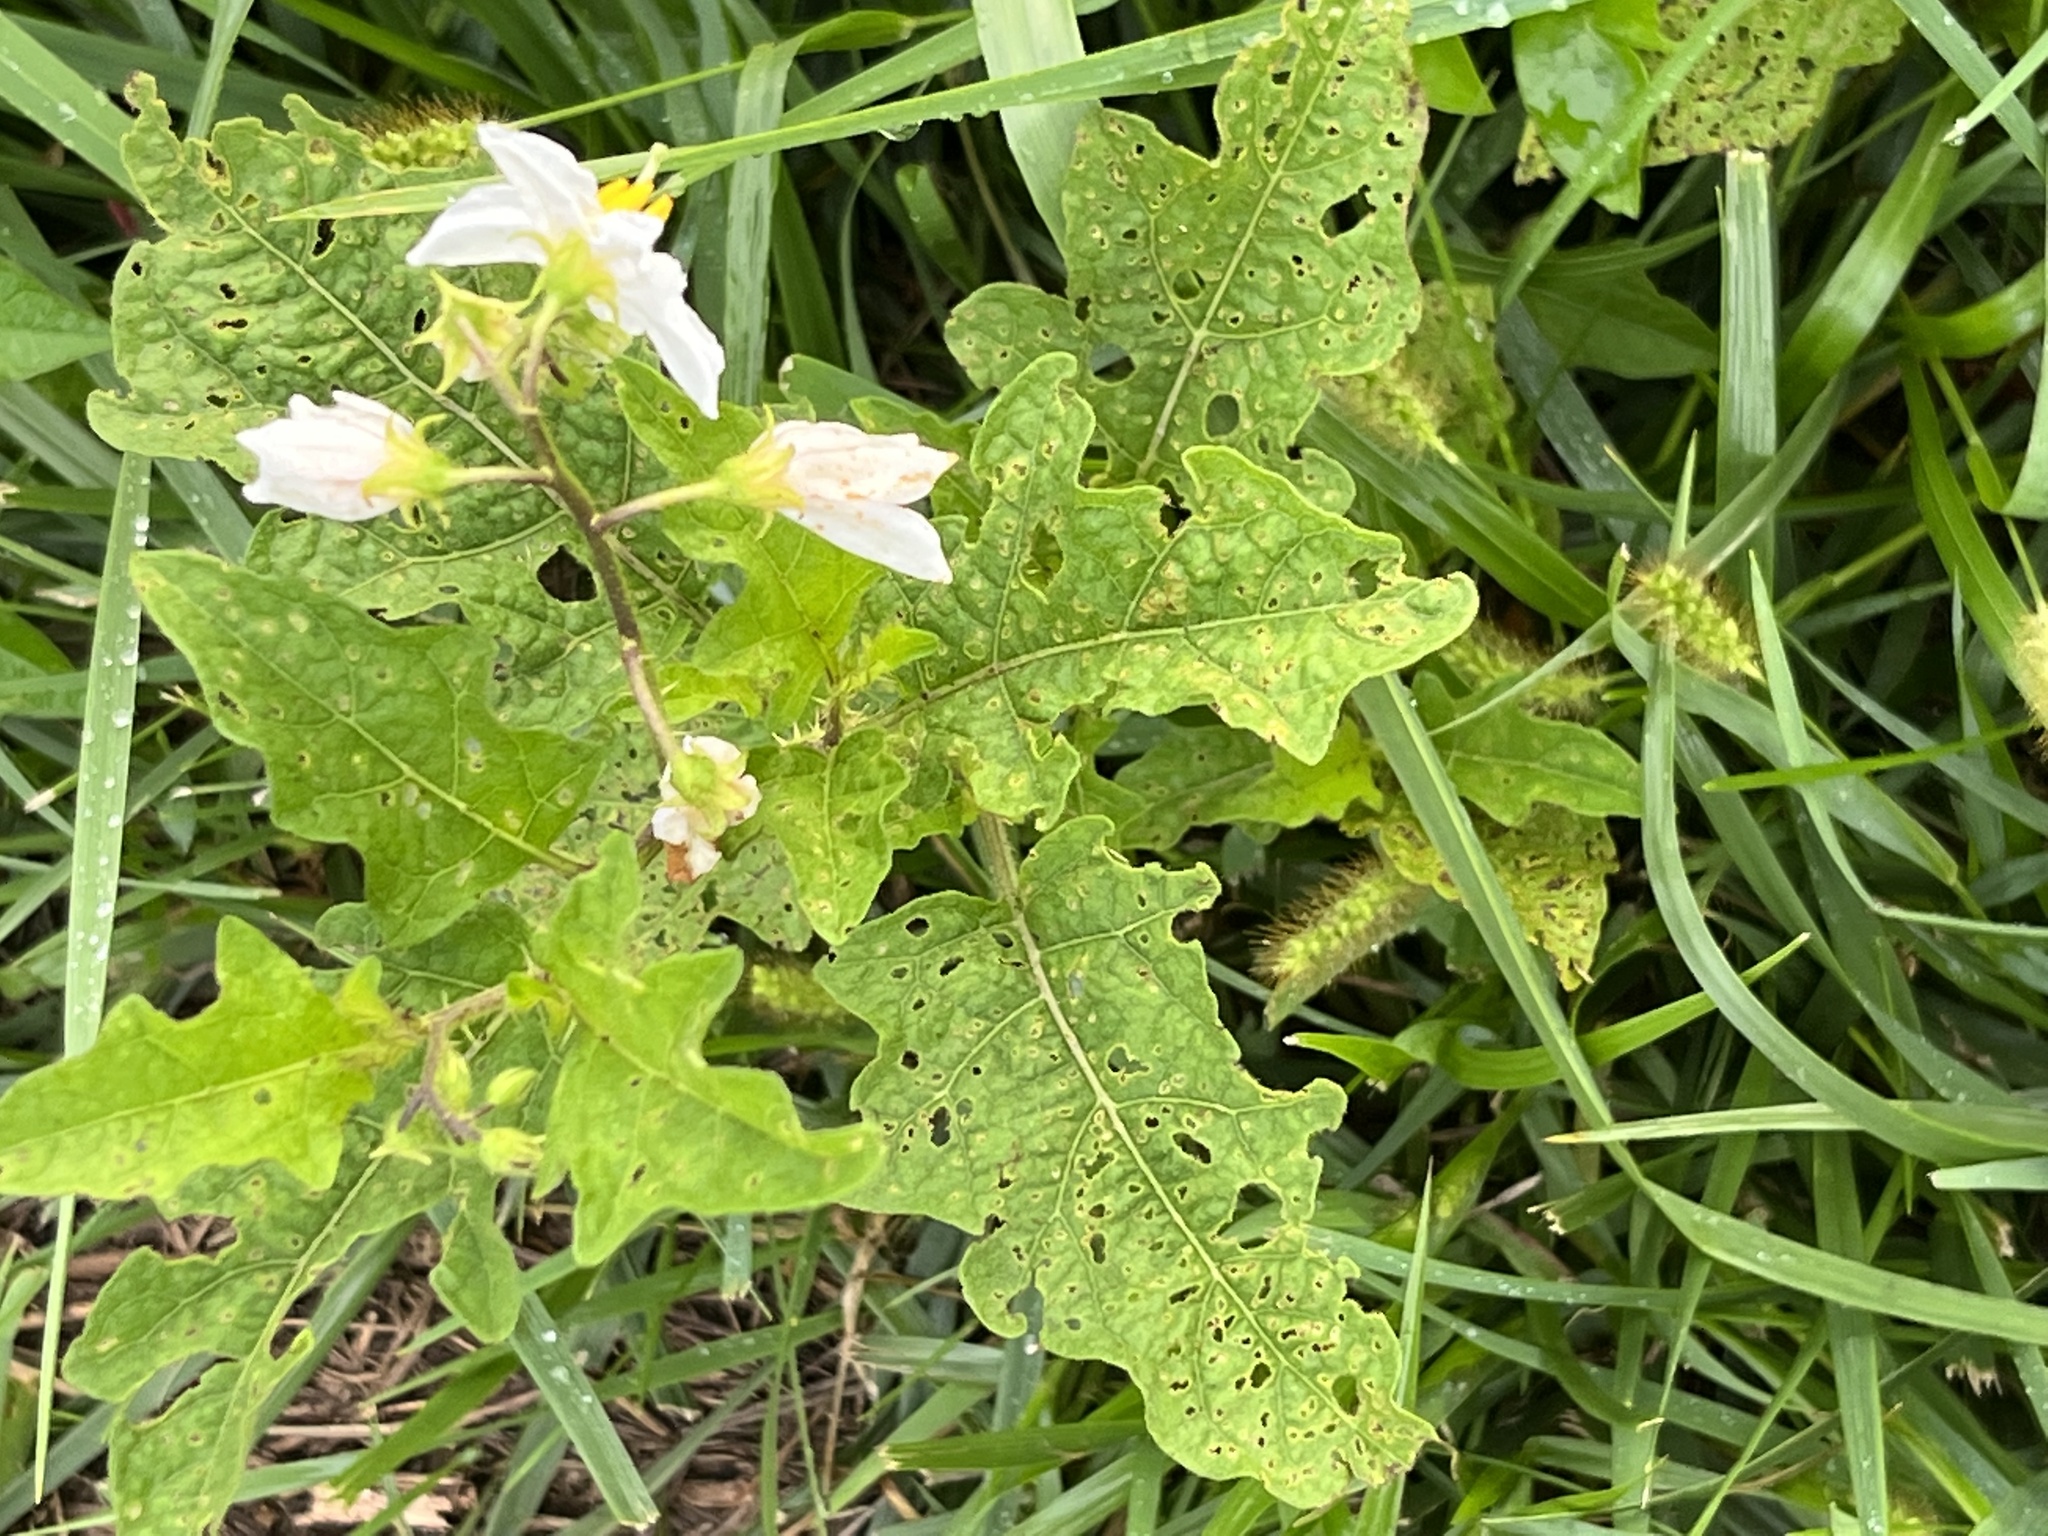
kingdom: Plantae
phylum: Tracheophyta
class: Magnoliopsida
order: Solanales
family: Solanaceae
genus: Solanum
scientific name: Solanum carolinense
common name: Horse-nettle
